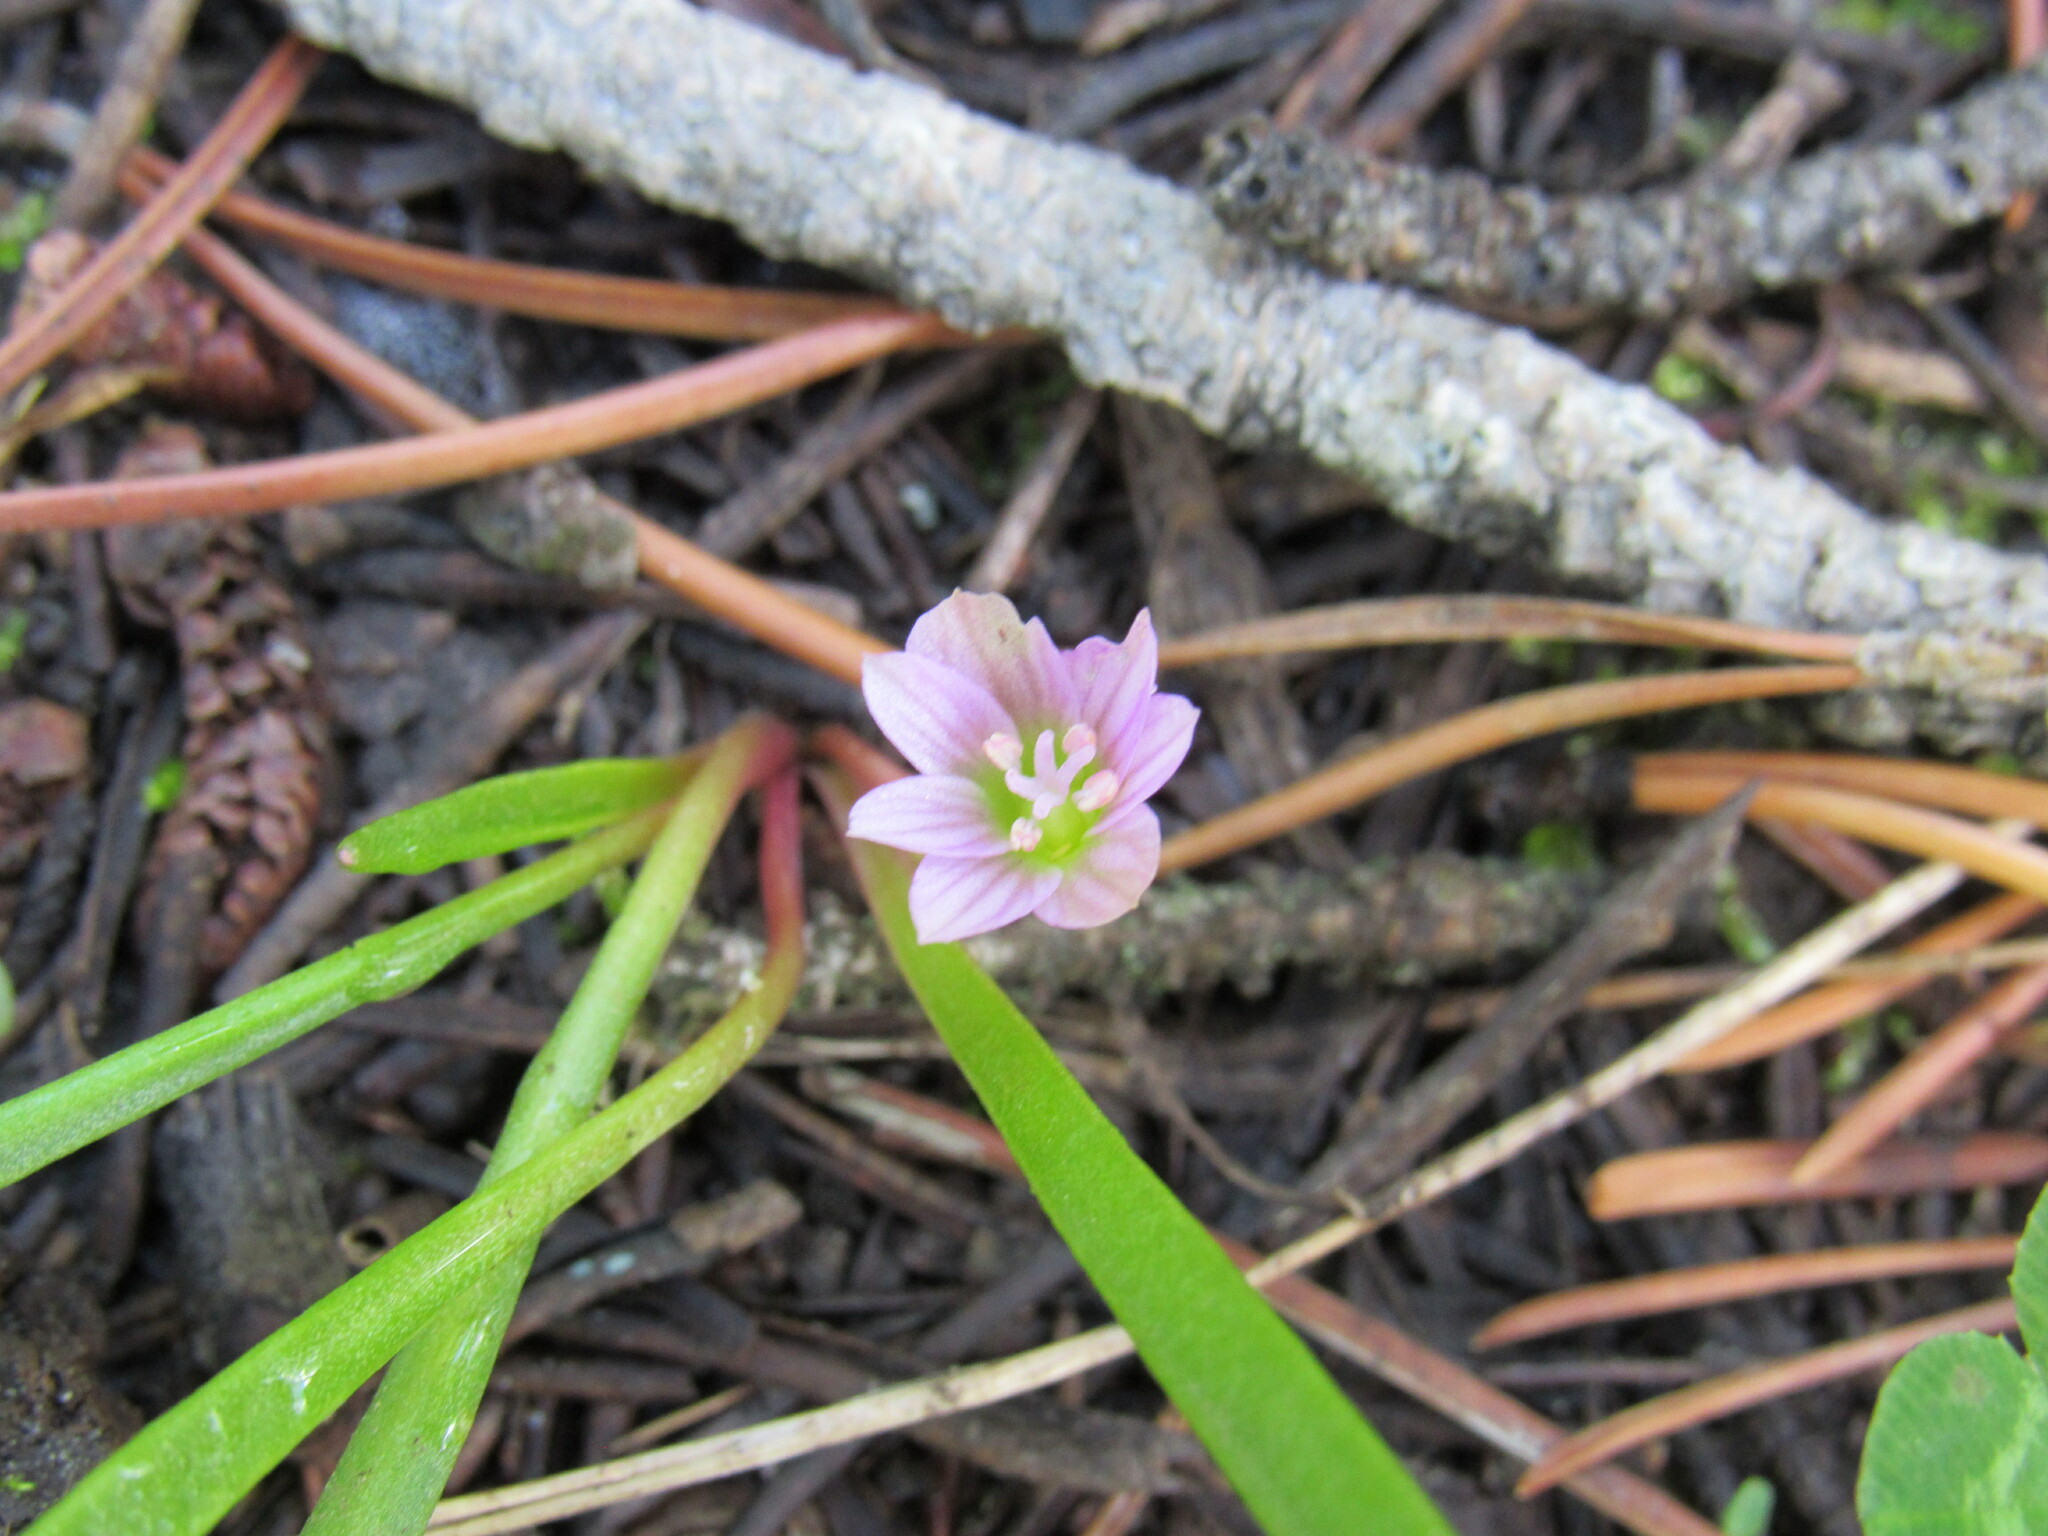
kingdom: Plantae
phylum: Tracheophyta
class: Magnoliopsida
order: Caryophyllales
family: Montiaceae
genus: Lewisia
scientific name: Lewisia pygmaea
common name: Alpine bitterroot
